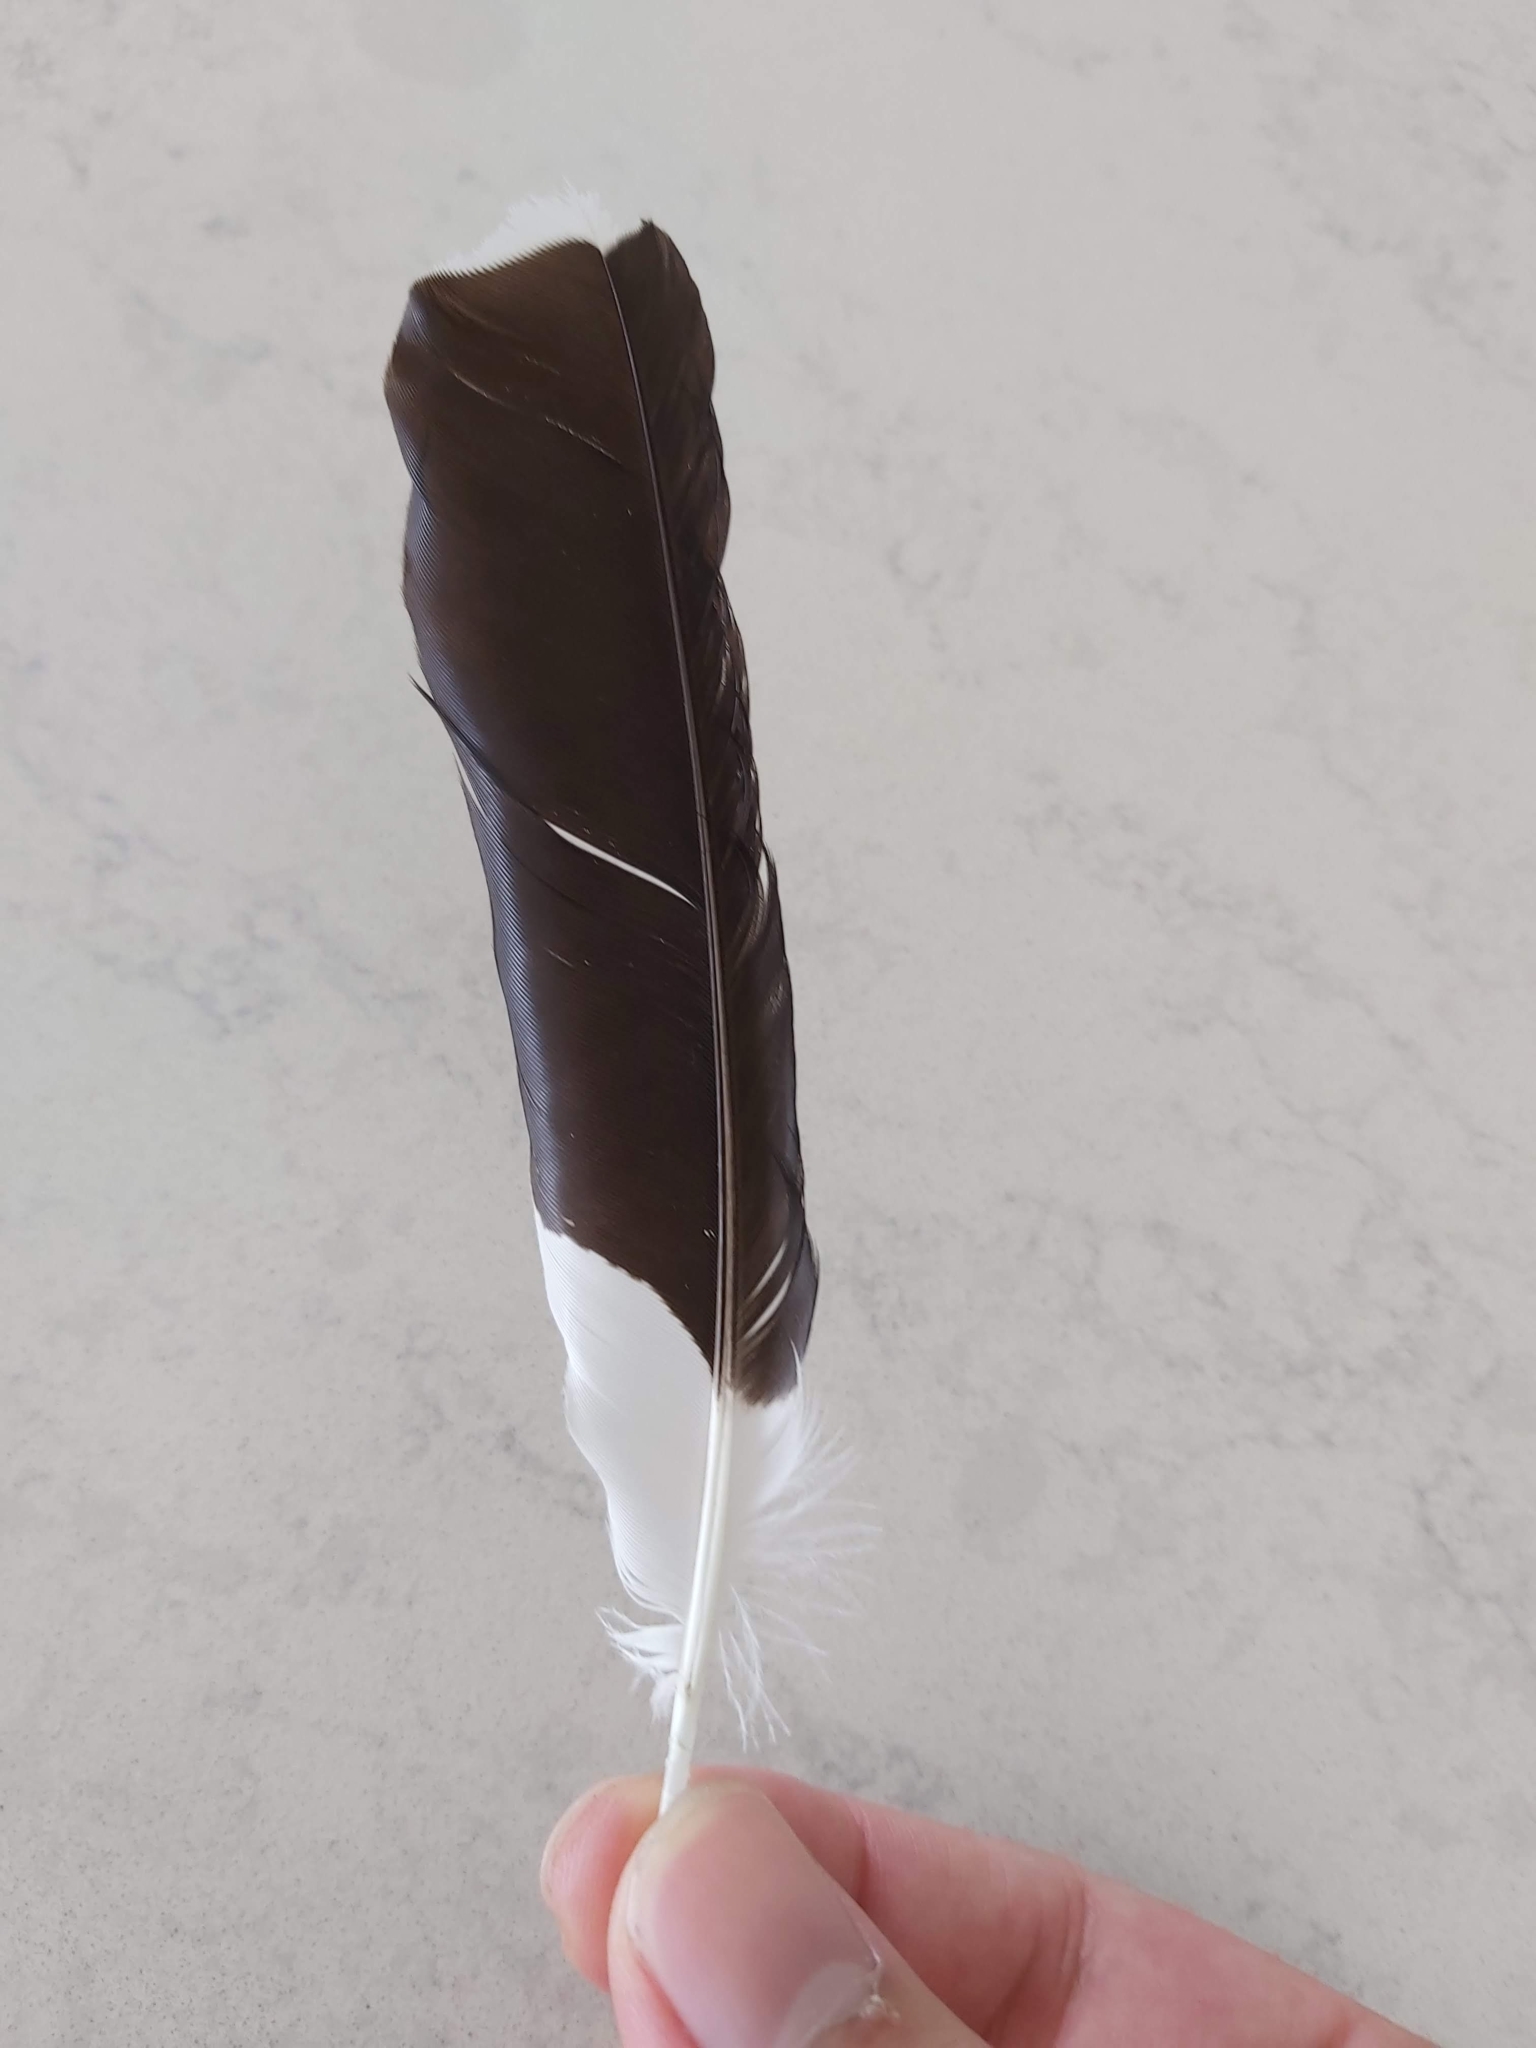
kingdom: Animalia
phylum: Chordata
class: Aves
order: Passeriformes
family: Monarchidae
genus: Grallina
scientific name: Grallina cyanoleuca
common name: Magpie-lark
